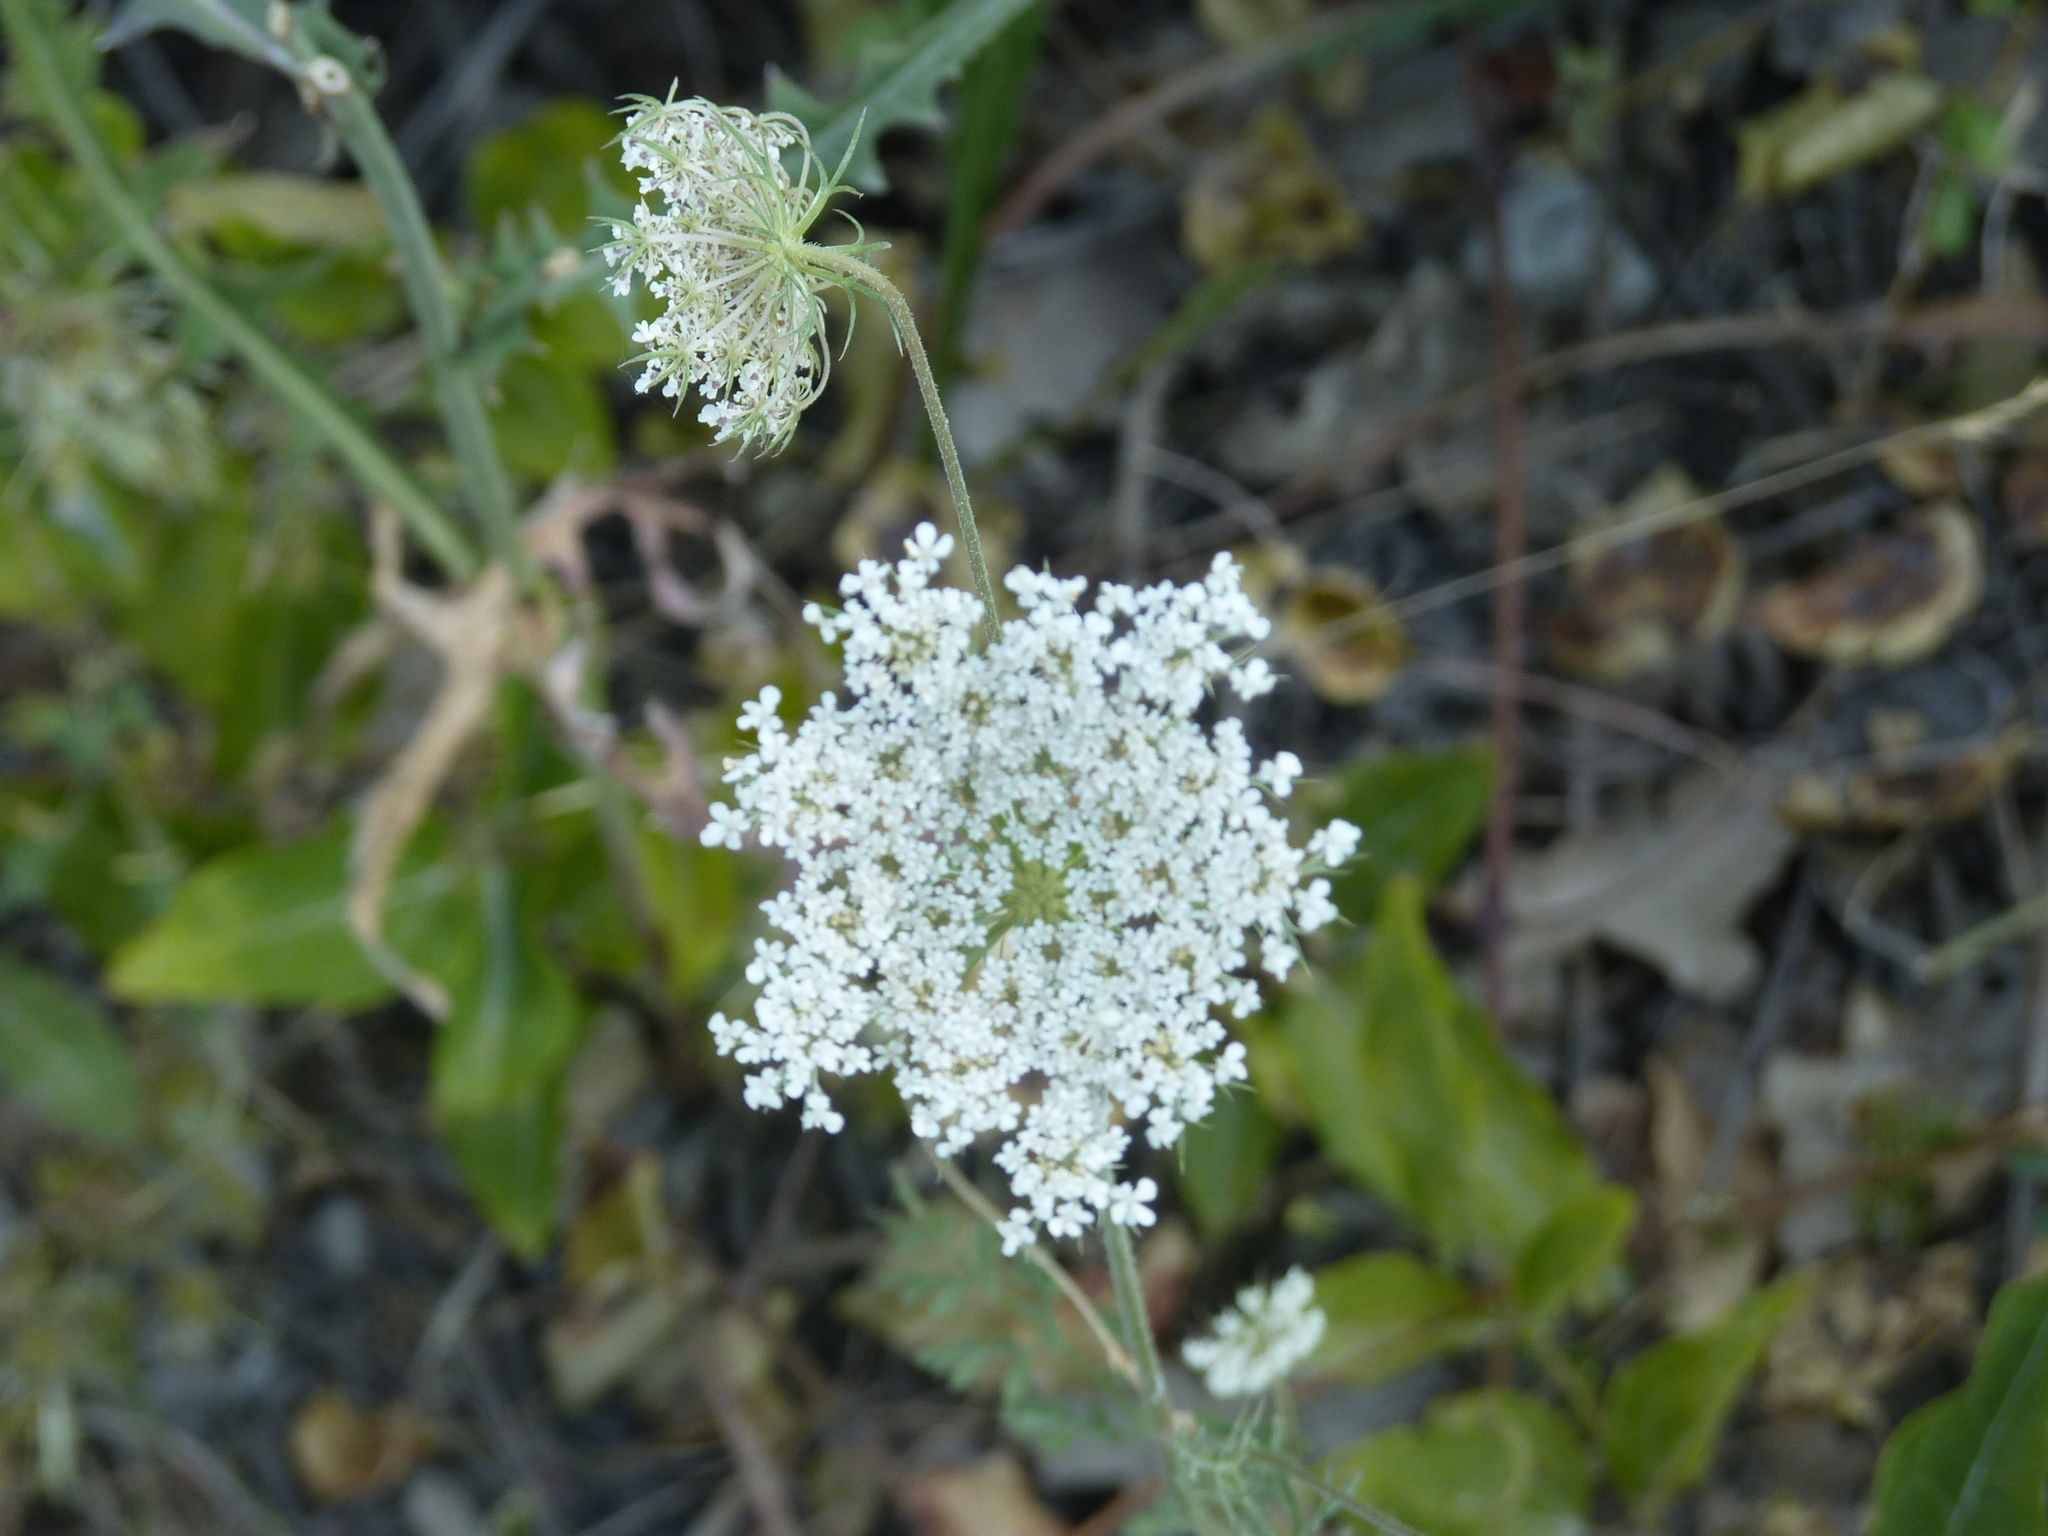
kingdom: Plantae
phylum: Tracheophyta
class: Magnoliopsida
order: Apiales
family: Apiaceae
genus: Daucus
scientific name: Daucus carota
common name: Wild carrot
